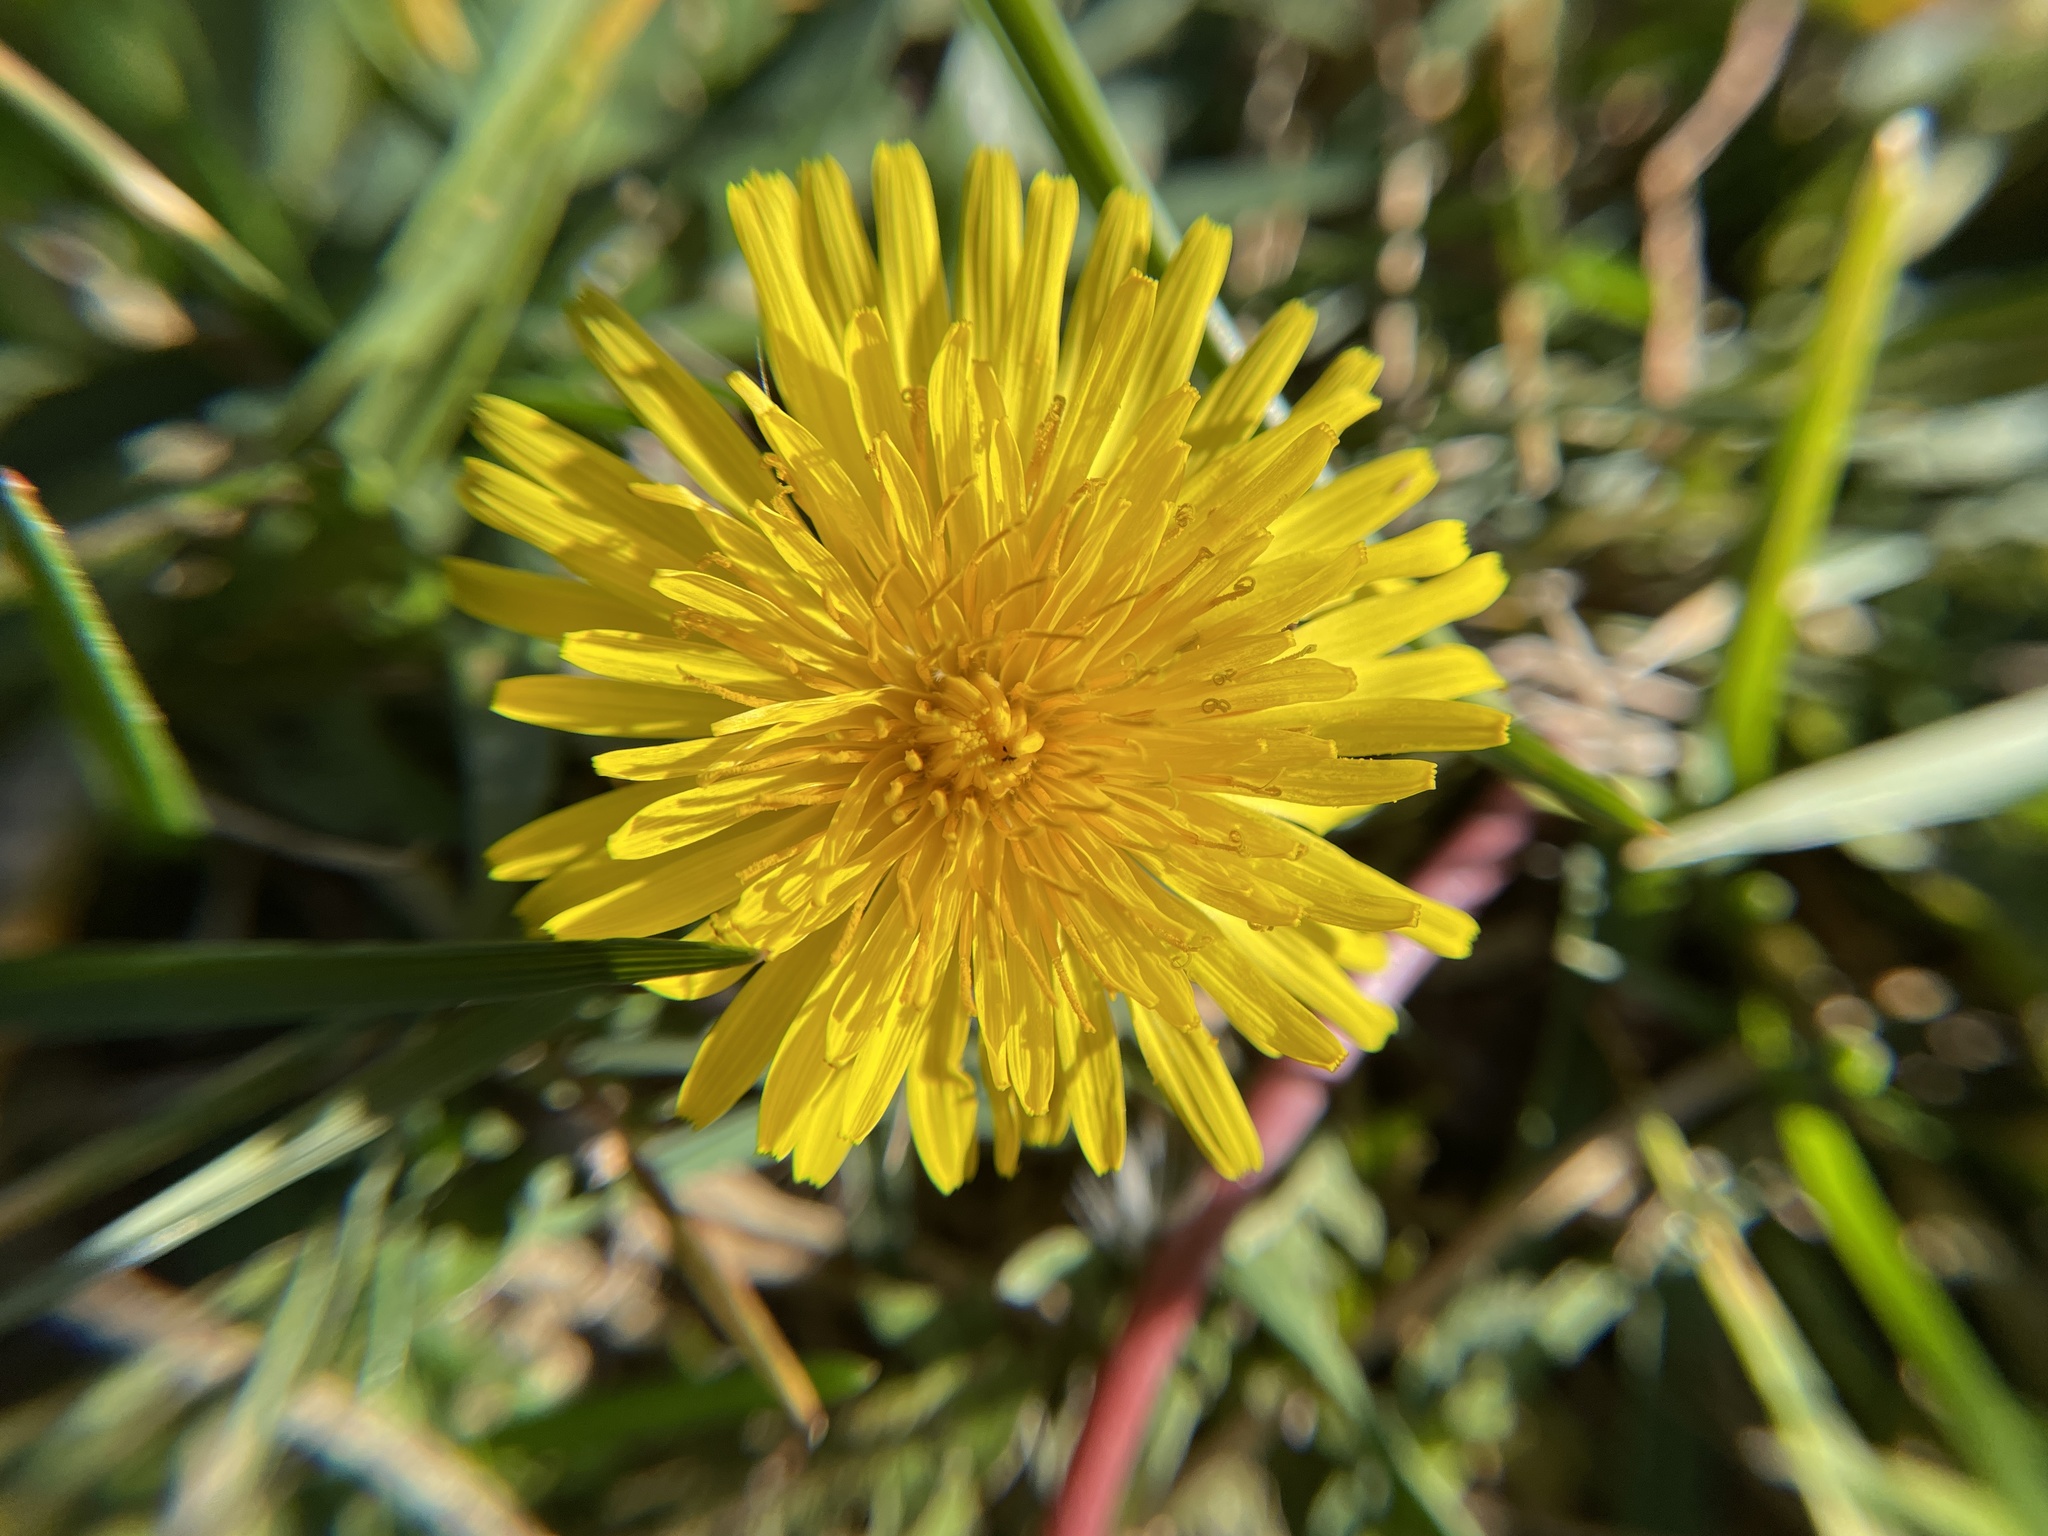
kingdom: Plantae
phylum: Tracheophyta
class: Magnoliopsida
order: Asterales
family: Asteraceae
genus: Taraxacum
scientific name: Taraxacum
